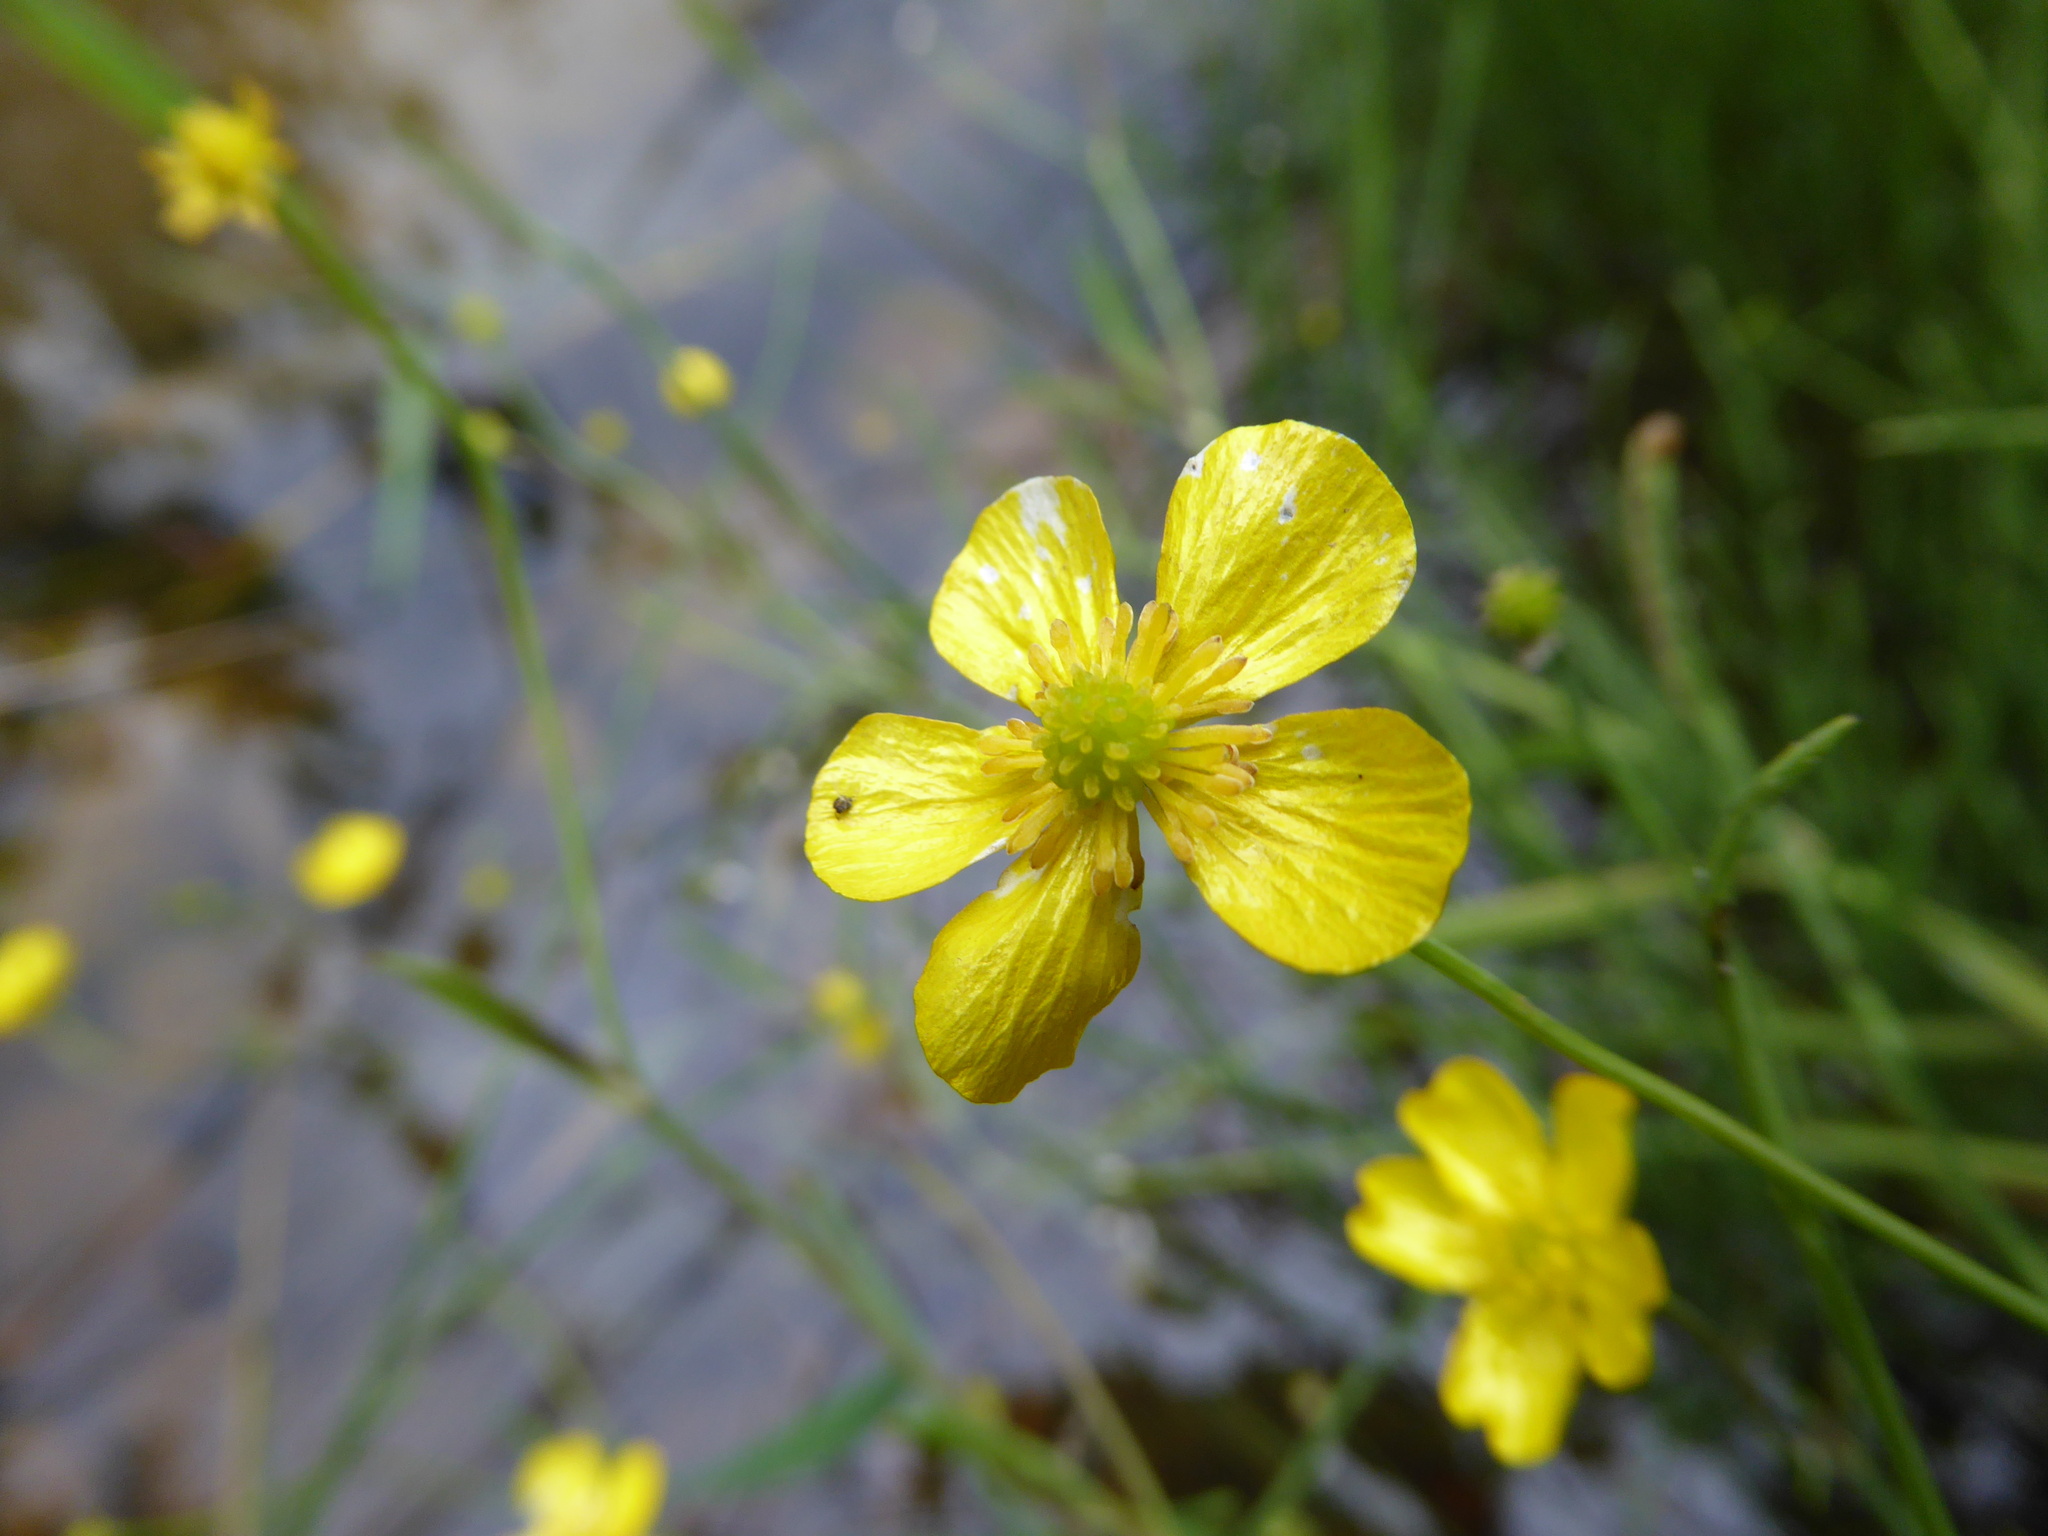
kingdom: Plantae
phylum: Tracheophyta
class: Magnoliopsida
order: Ranunculales
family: Ranunculaceae
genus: Ranunculus
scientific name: Ranunculus flammula
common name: Lesser spearwort
